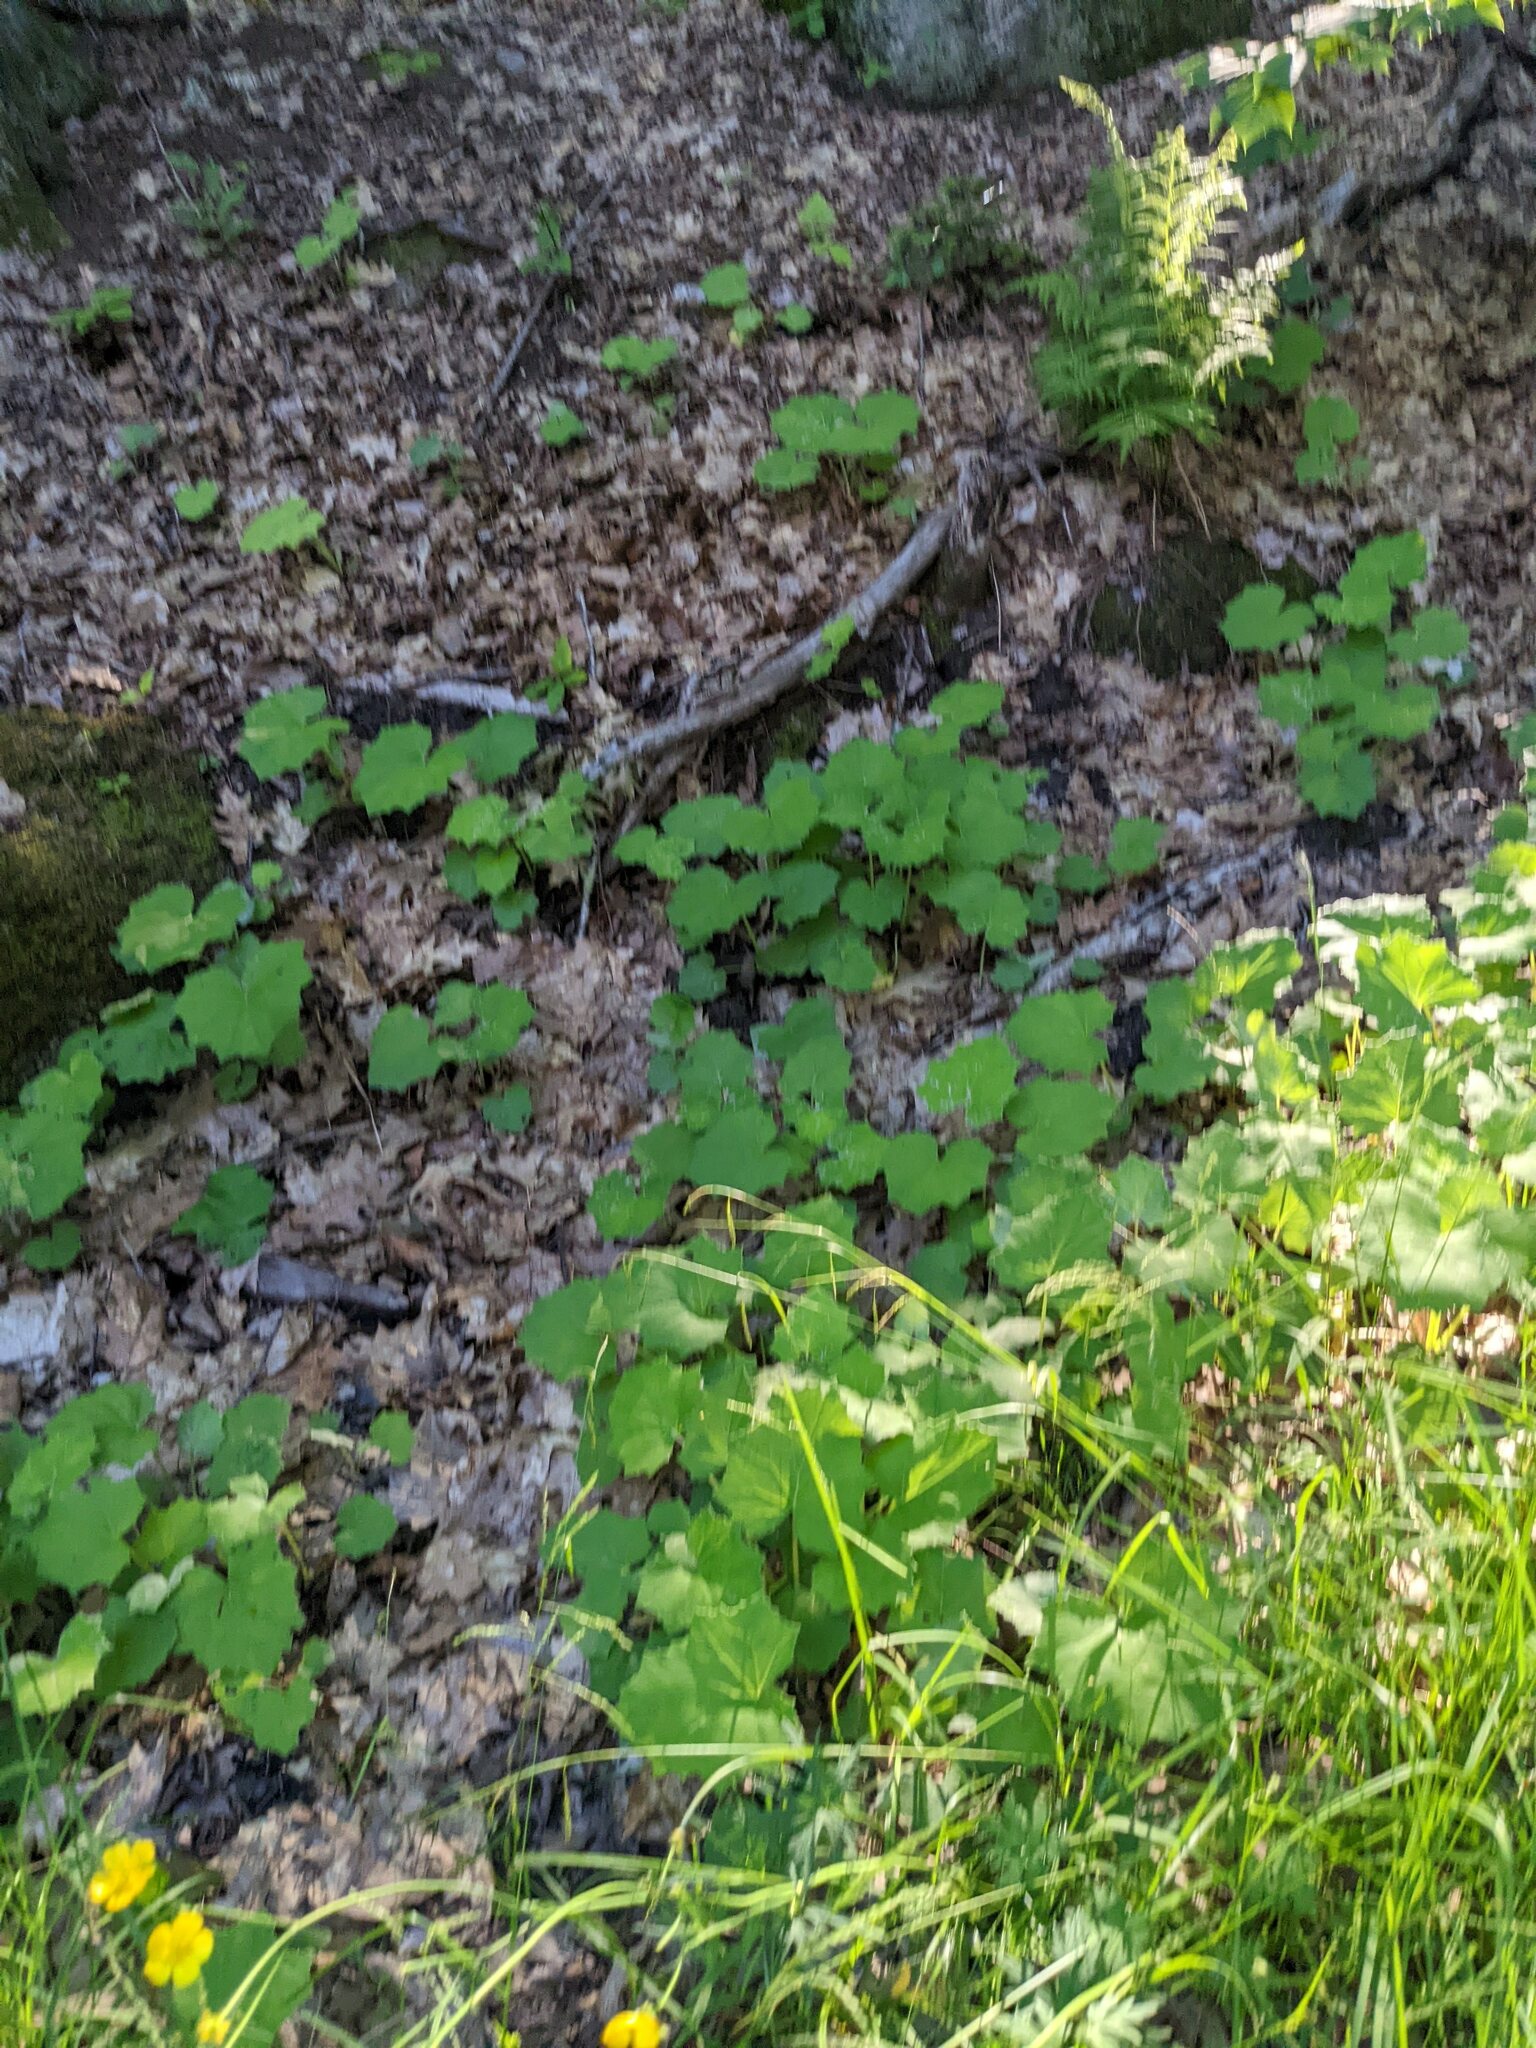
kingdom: Plantae
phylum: Tracheophyta
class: Magnoliopsida
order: Asterales
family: Asteraceae
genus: Tussilago
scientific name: Tussilago farfara
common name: Coltsfoot
